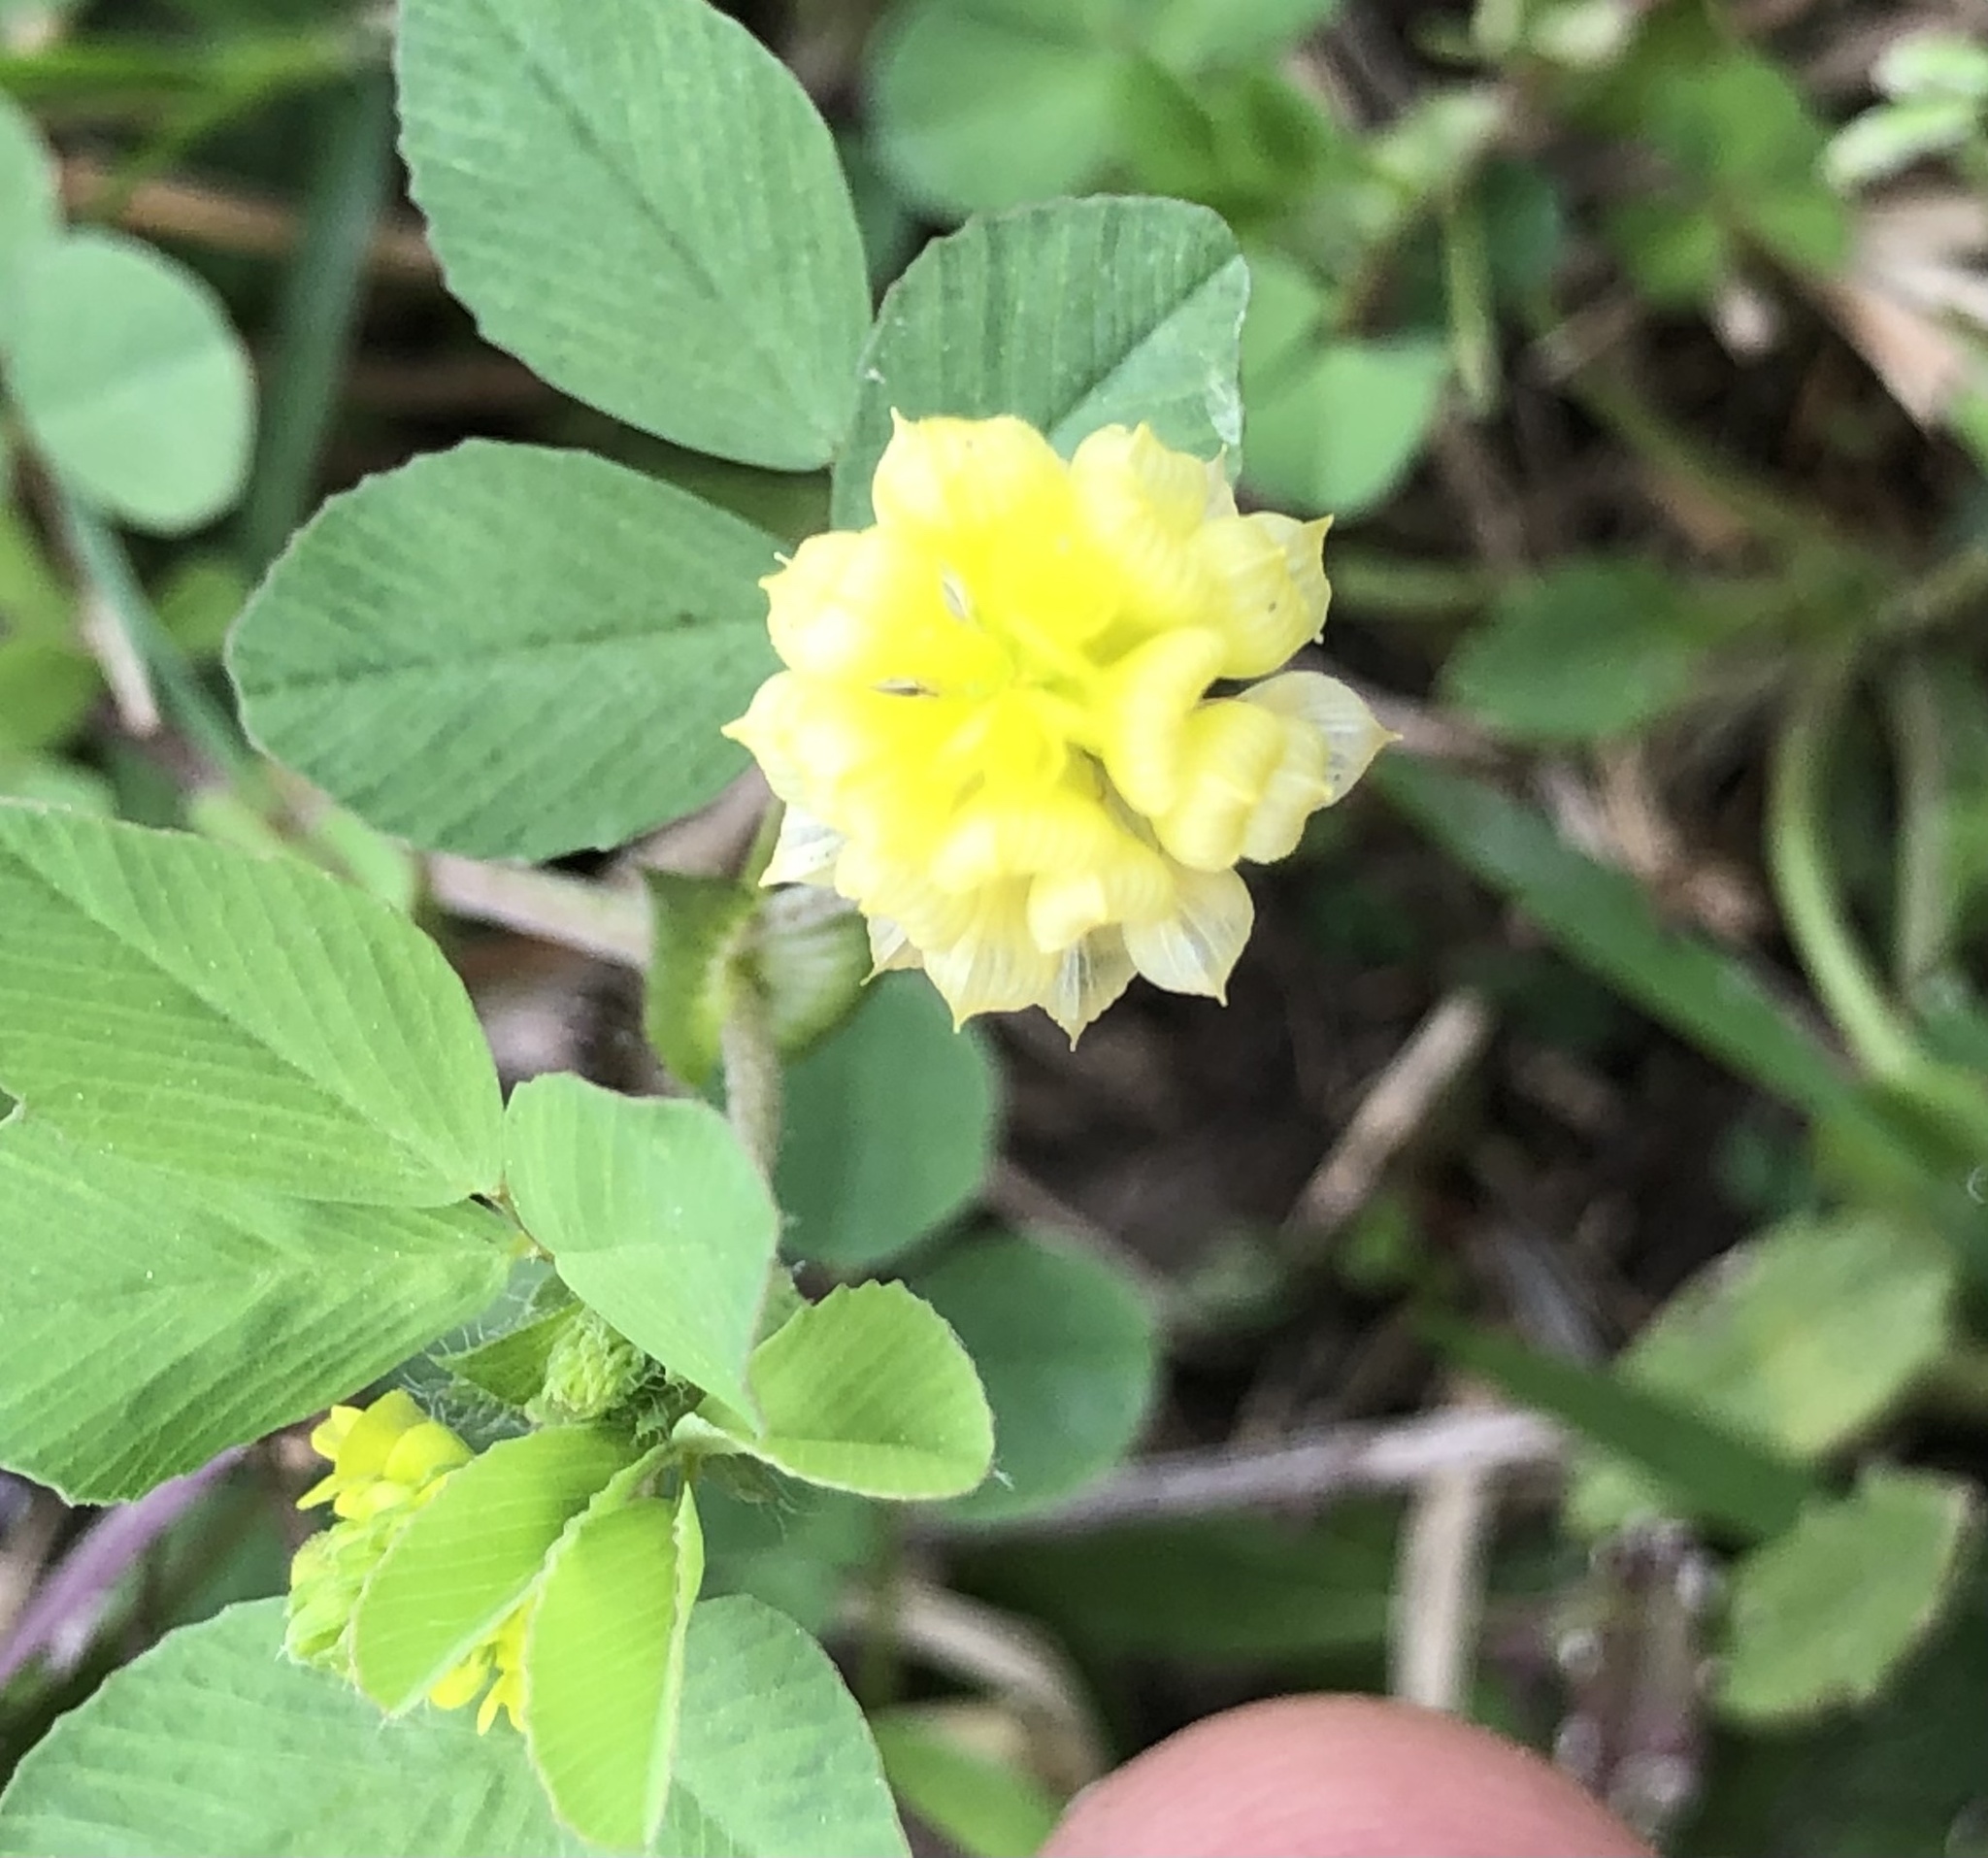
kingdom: Plantae
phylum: Tracheophyta
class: Magnoliopsida
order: Fabales
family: Fabaceae
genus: Trifolium
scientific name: Trifolium campestre
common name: Field clover
